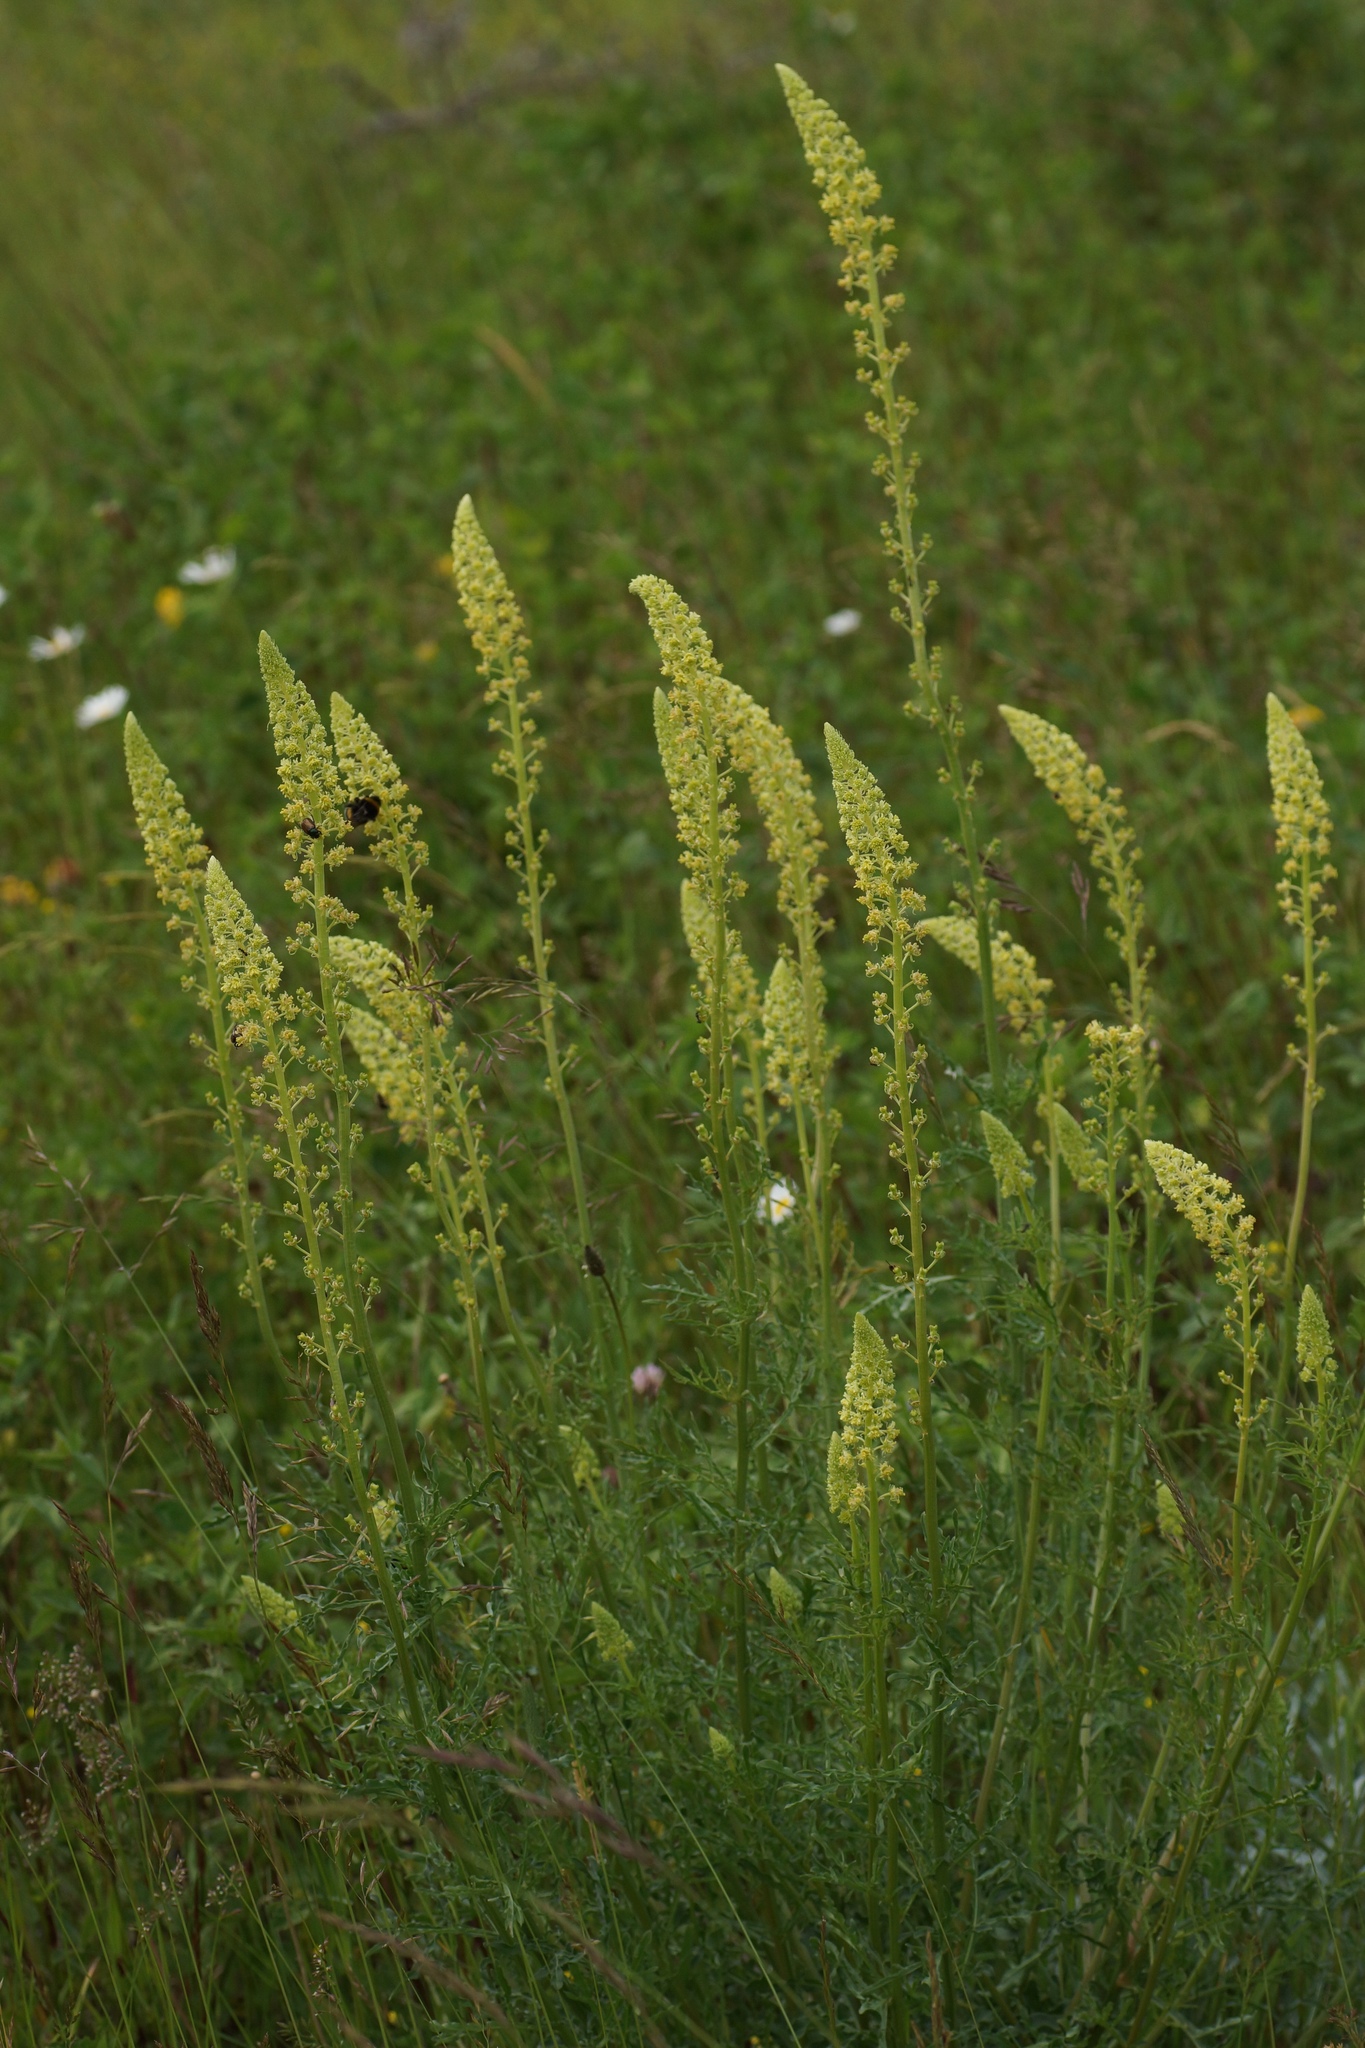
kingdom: Plantae
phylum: Tracheophyta
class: Magnoliopsida
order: Brassicales
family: Resedaceae
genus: Reseda
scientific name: Reseda lutea
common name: Wild mignonette
